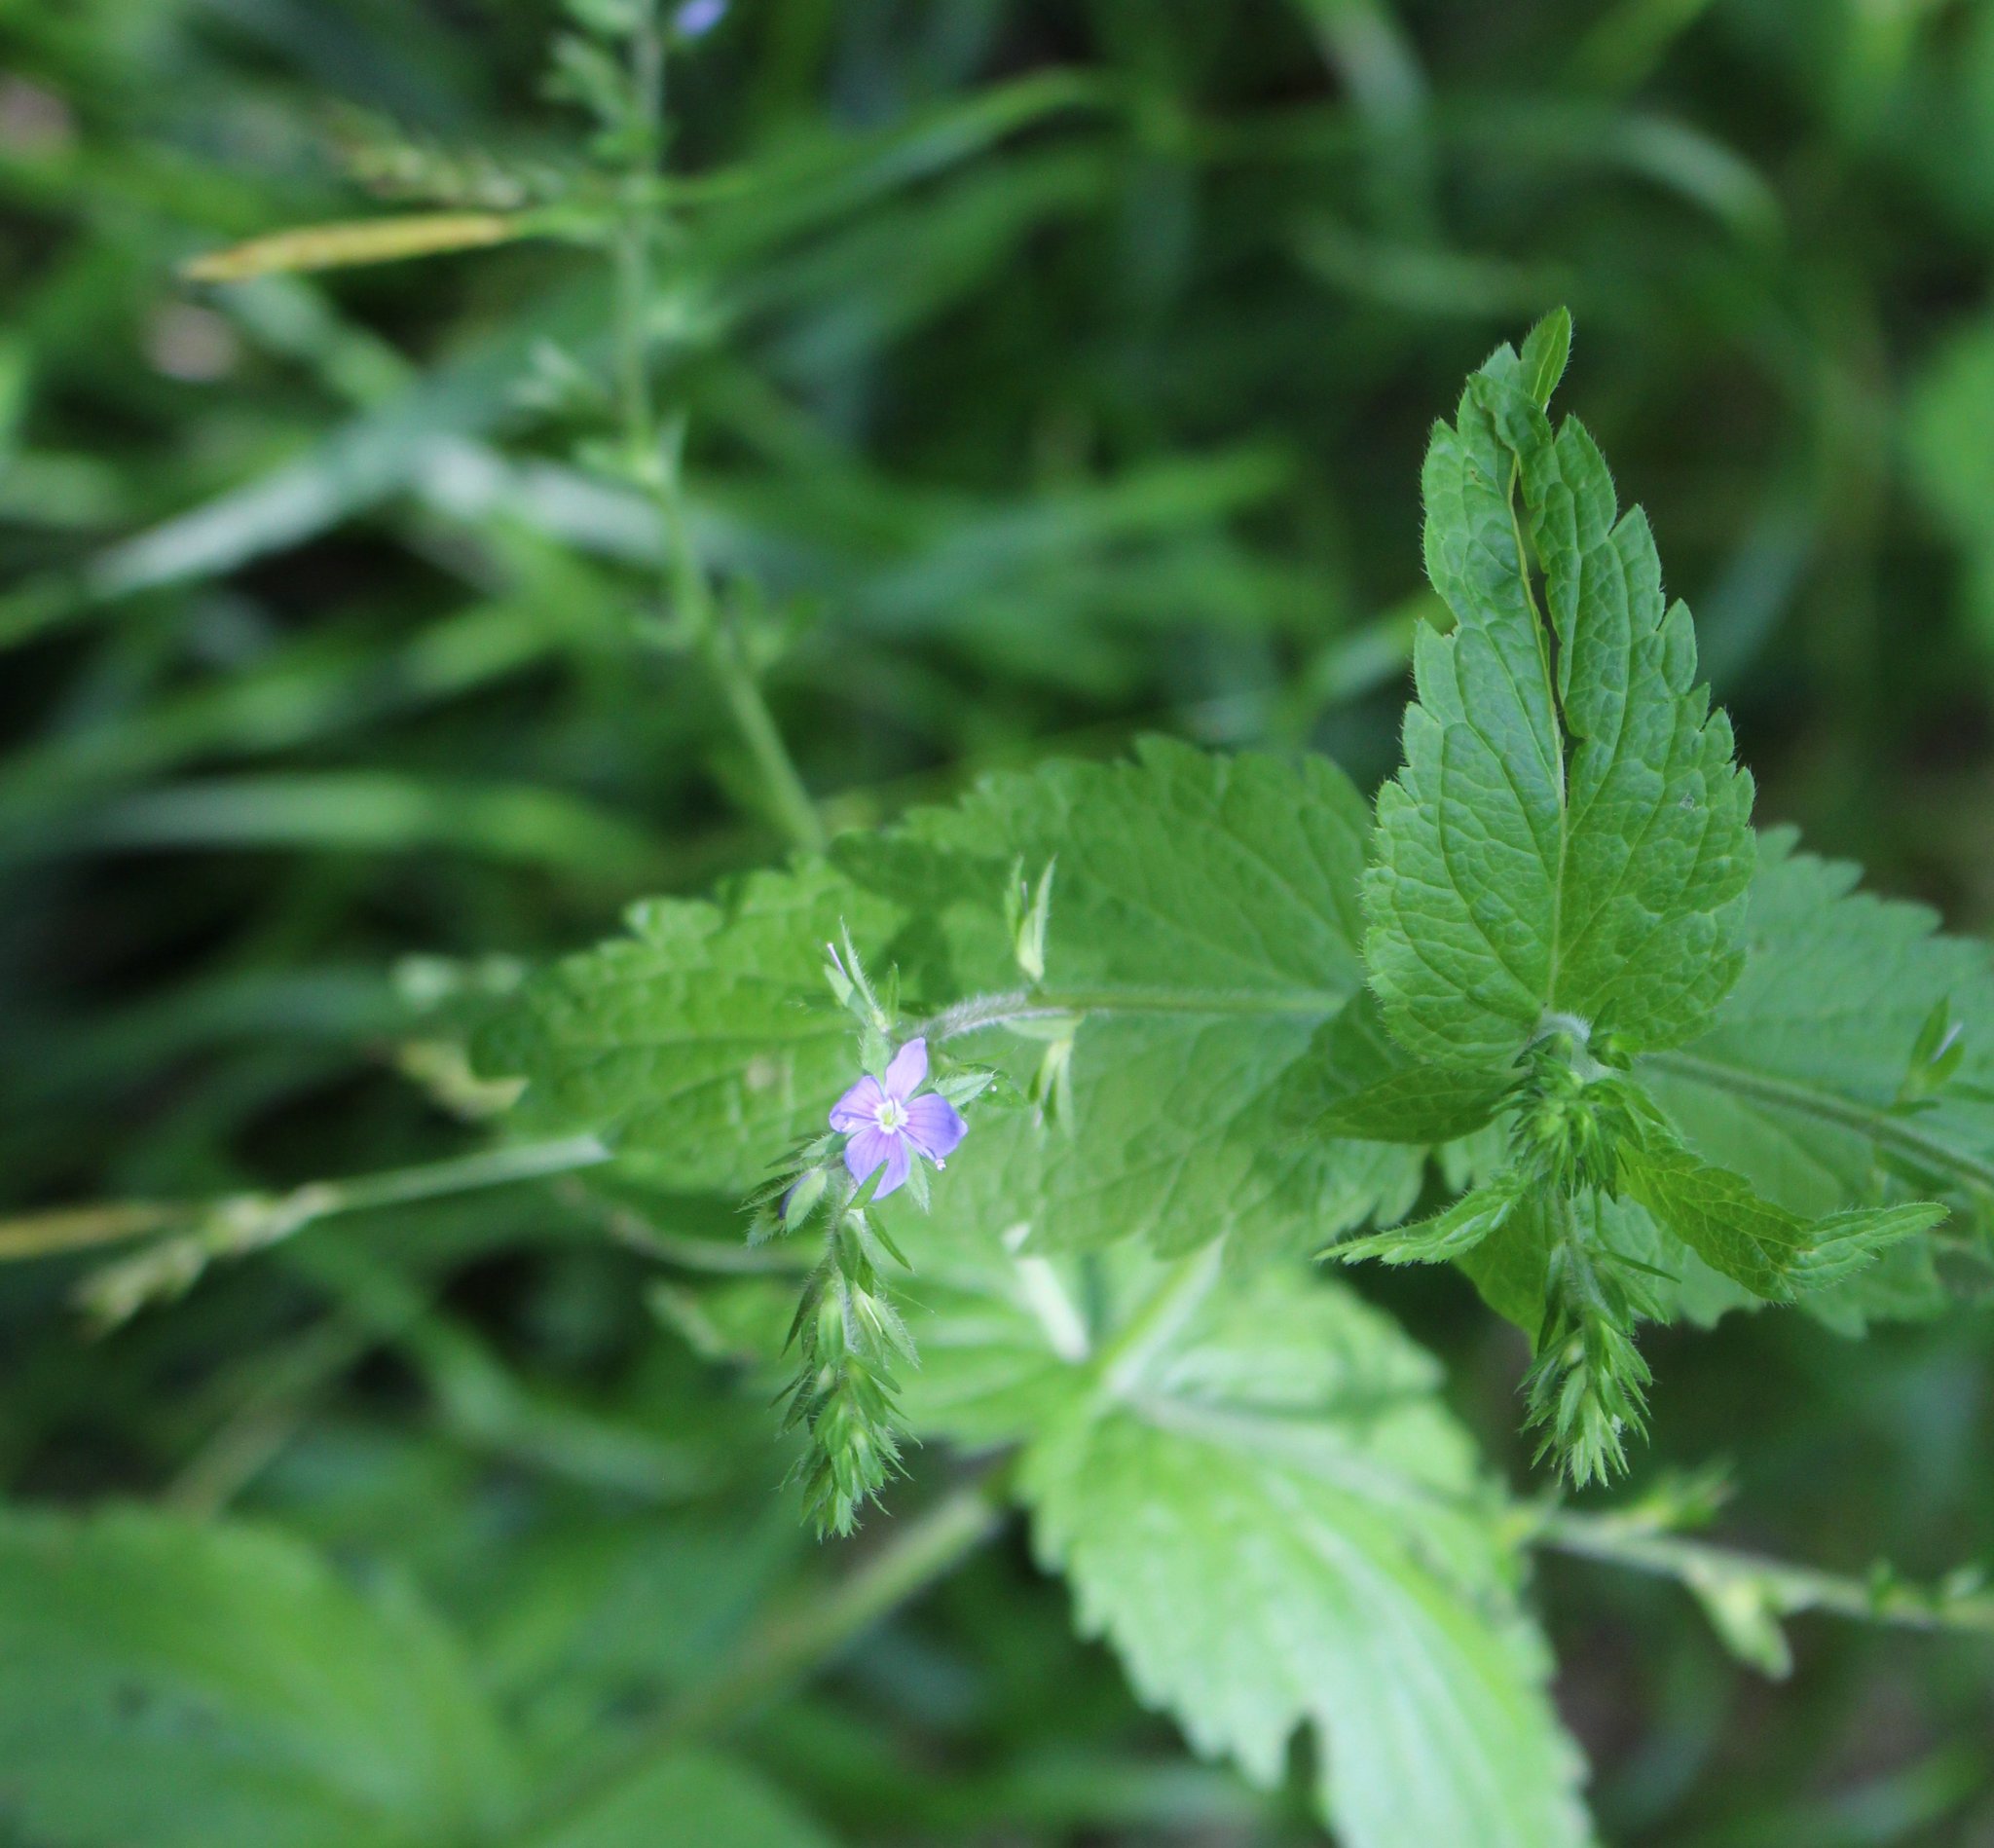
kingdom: Plantae
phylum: Tracheophyta
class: Magnoliopsida
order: Lamiales
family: Plantaginaceae
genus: Veronica
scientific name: Veronica magna
